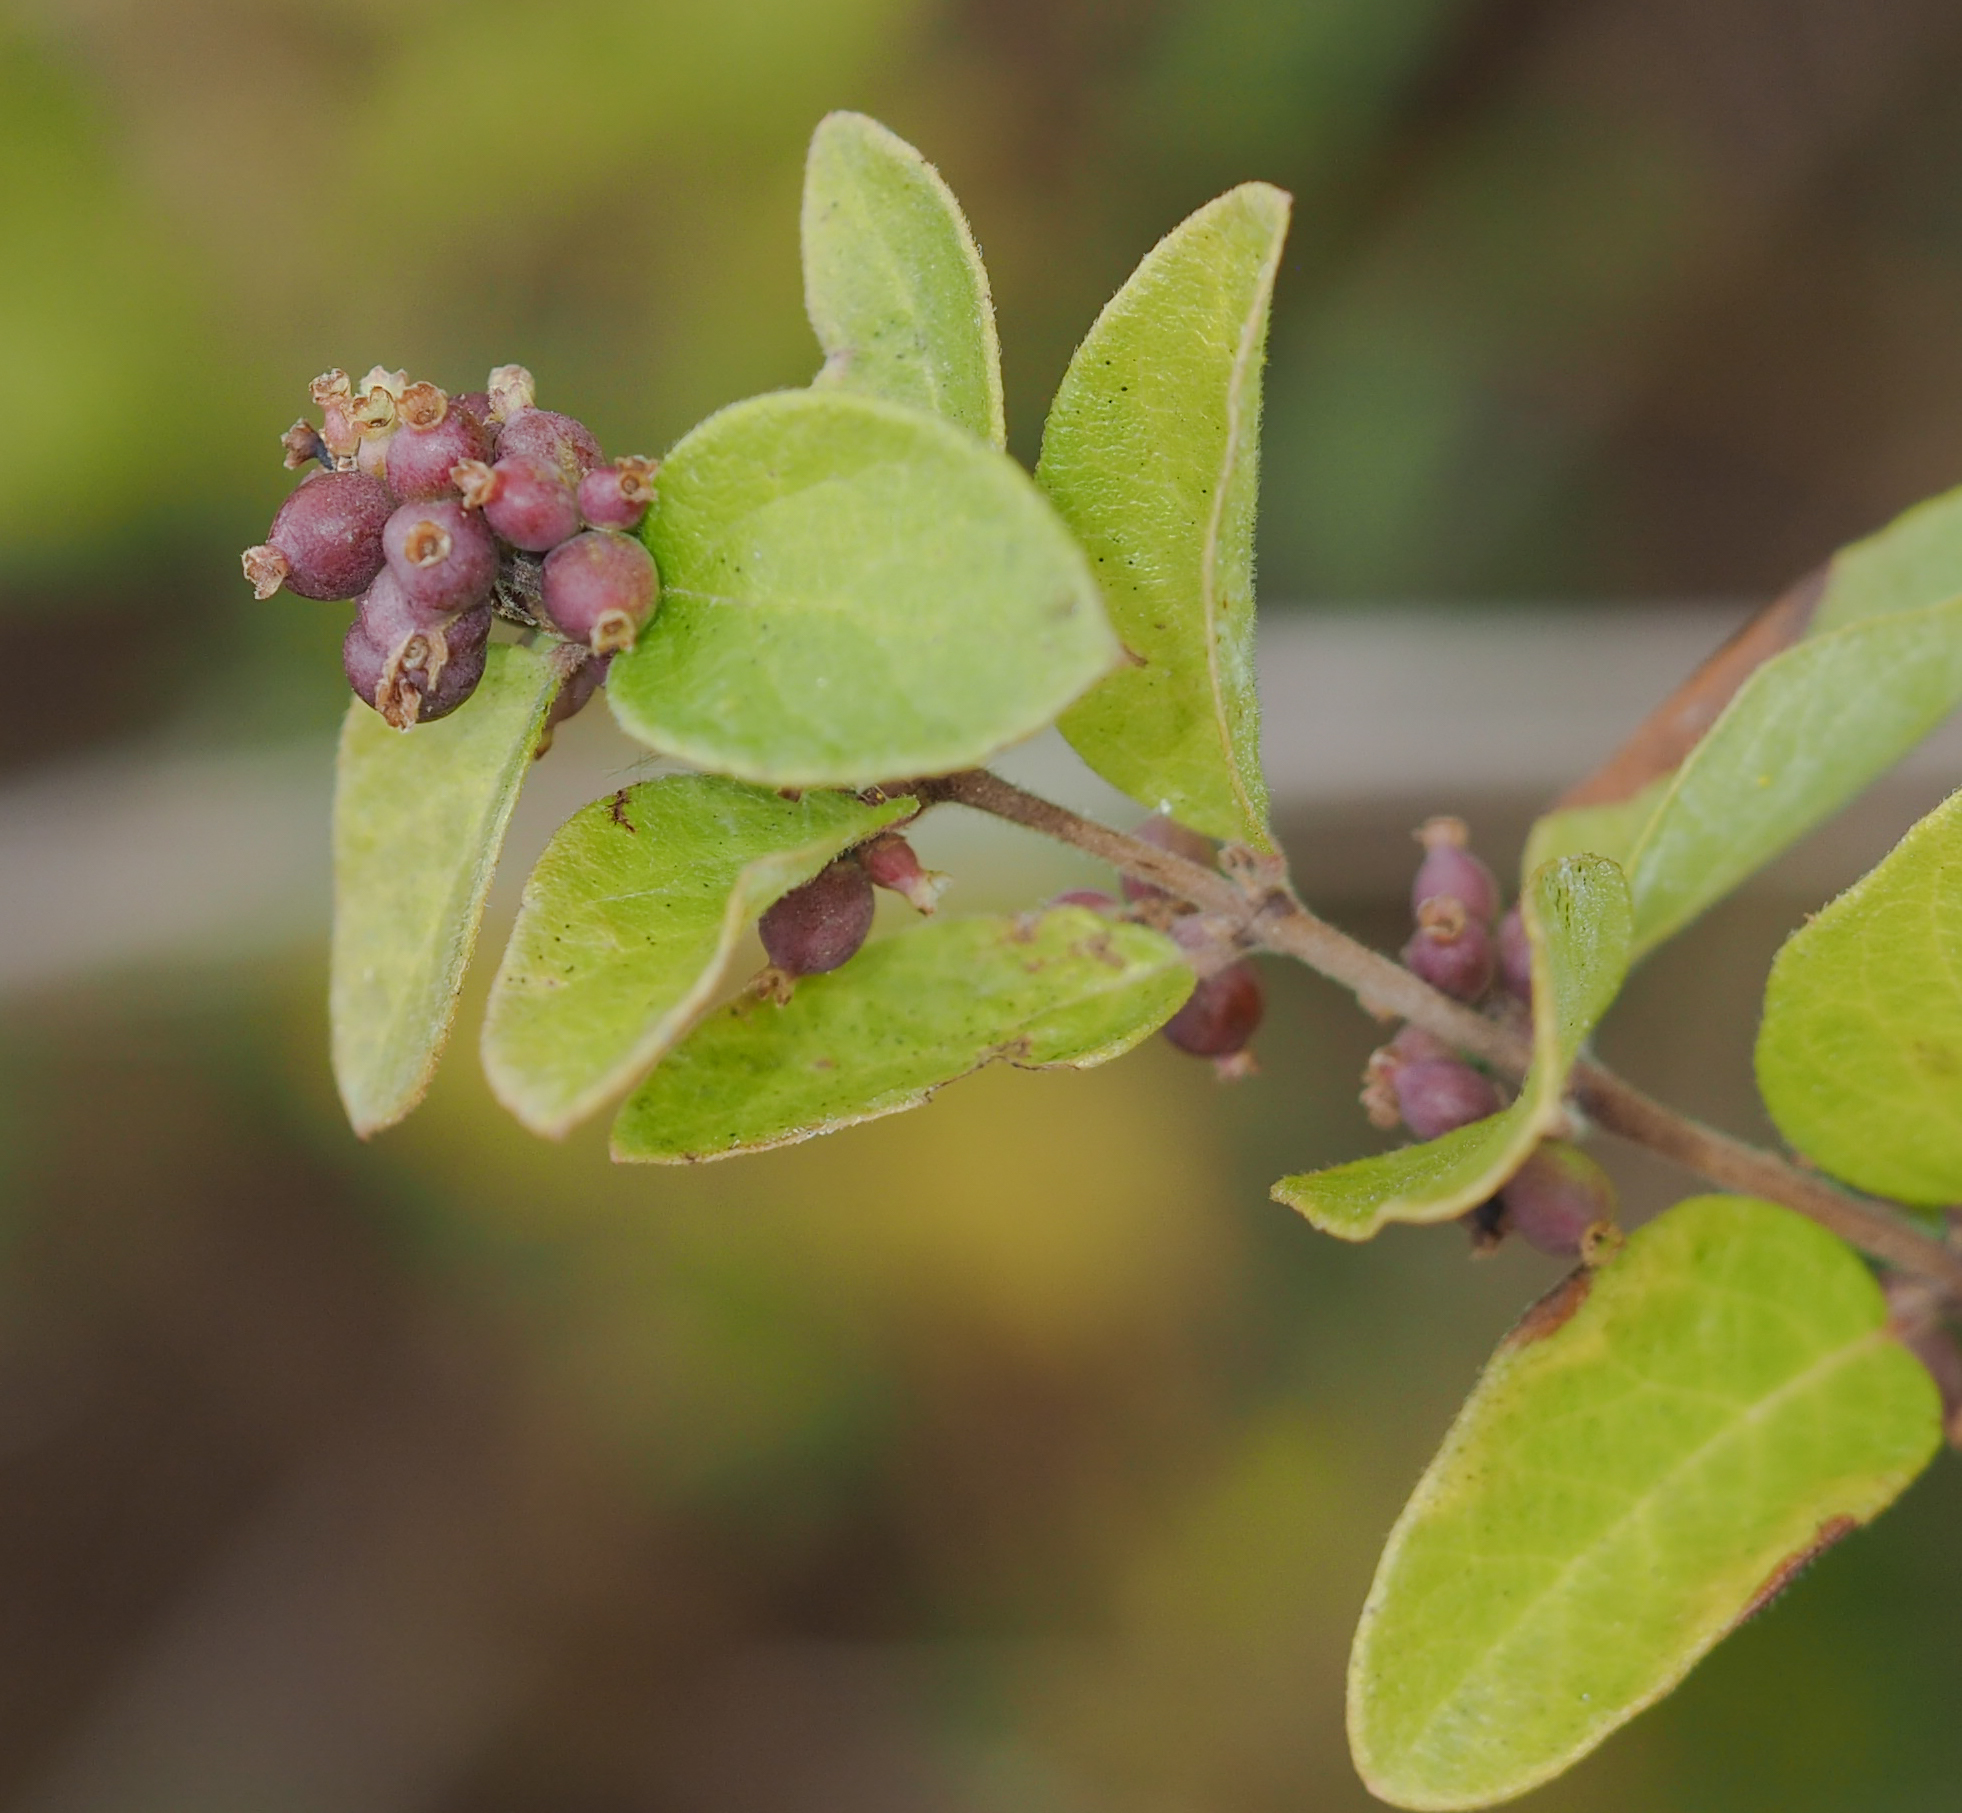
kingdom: Plantae
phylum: Tracheophyta
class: Magnoliopsida
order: Dipsacales
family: Caprifoliaceae
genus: Symphoricarpos
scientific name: Symphoricarpos orbiculatus
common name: Coralberry
